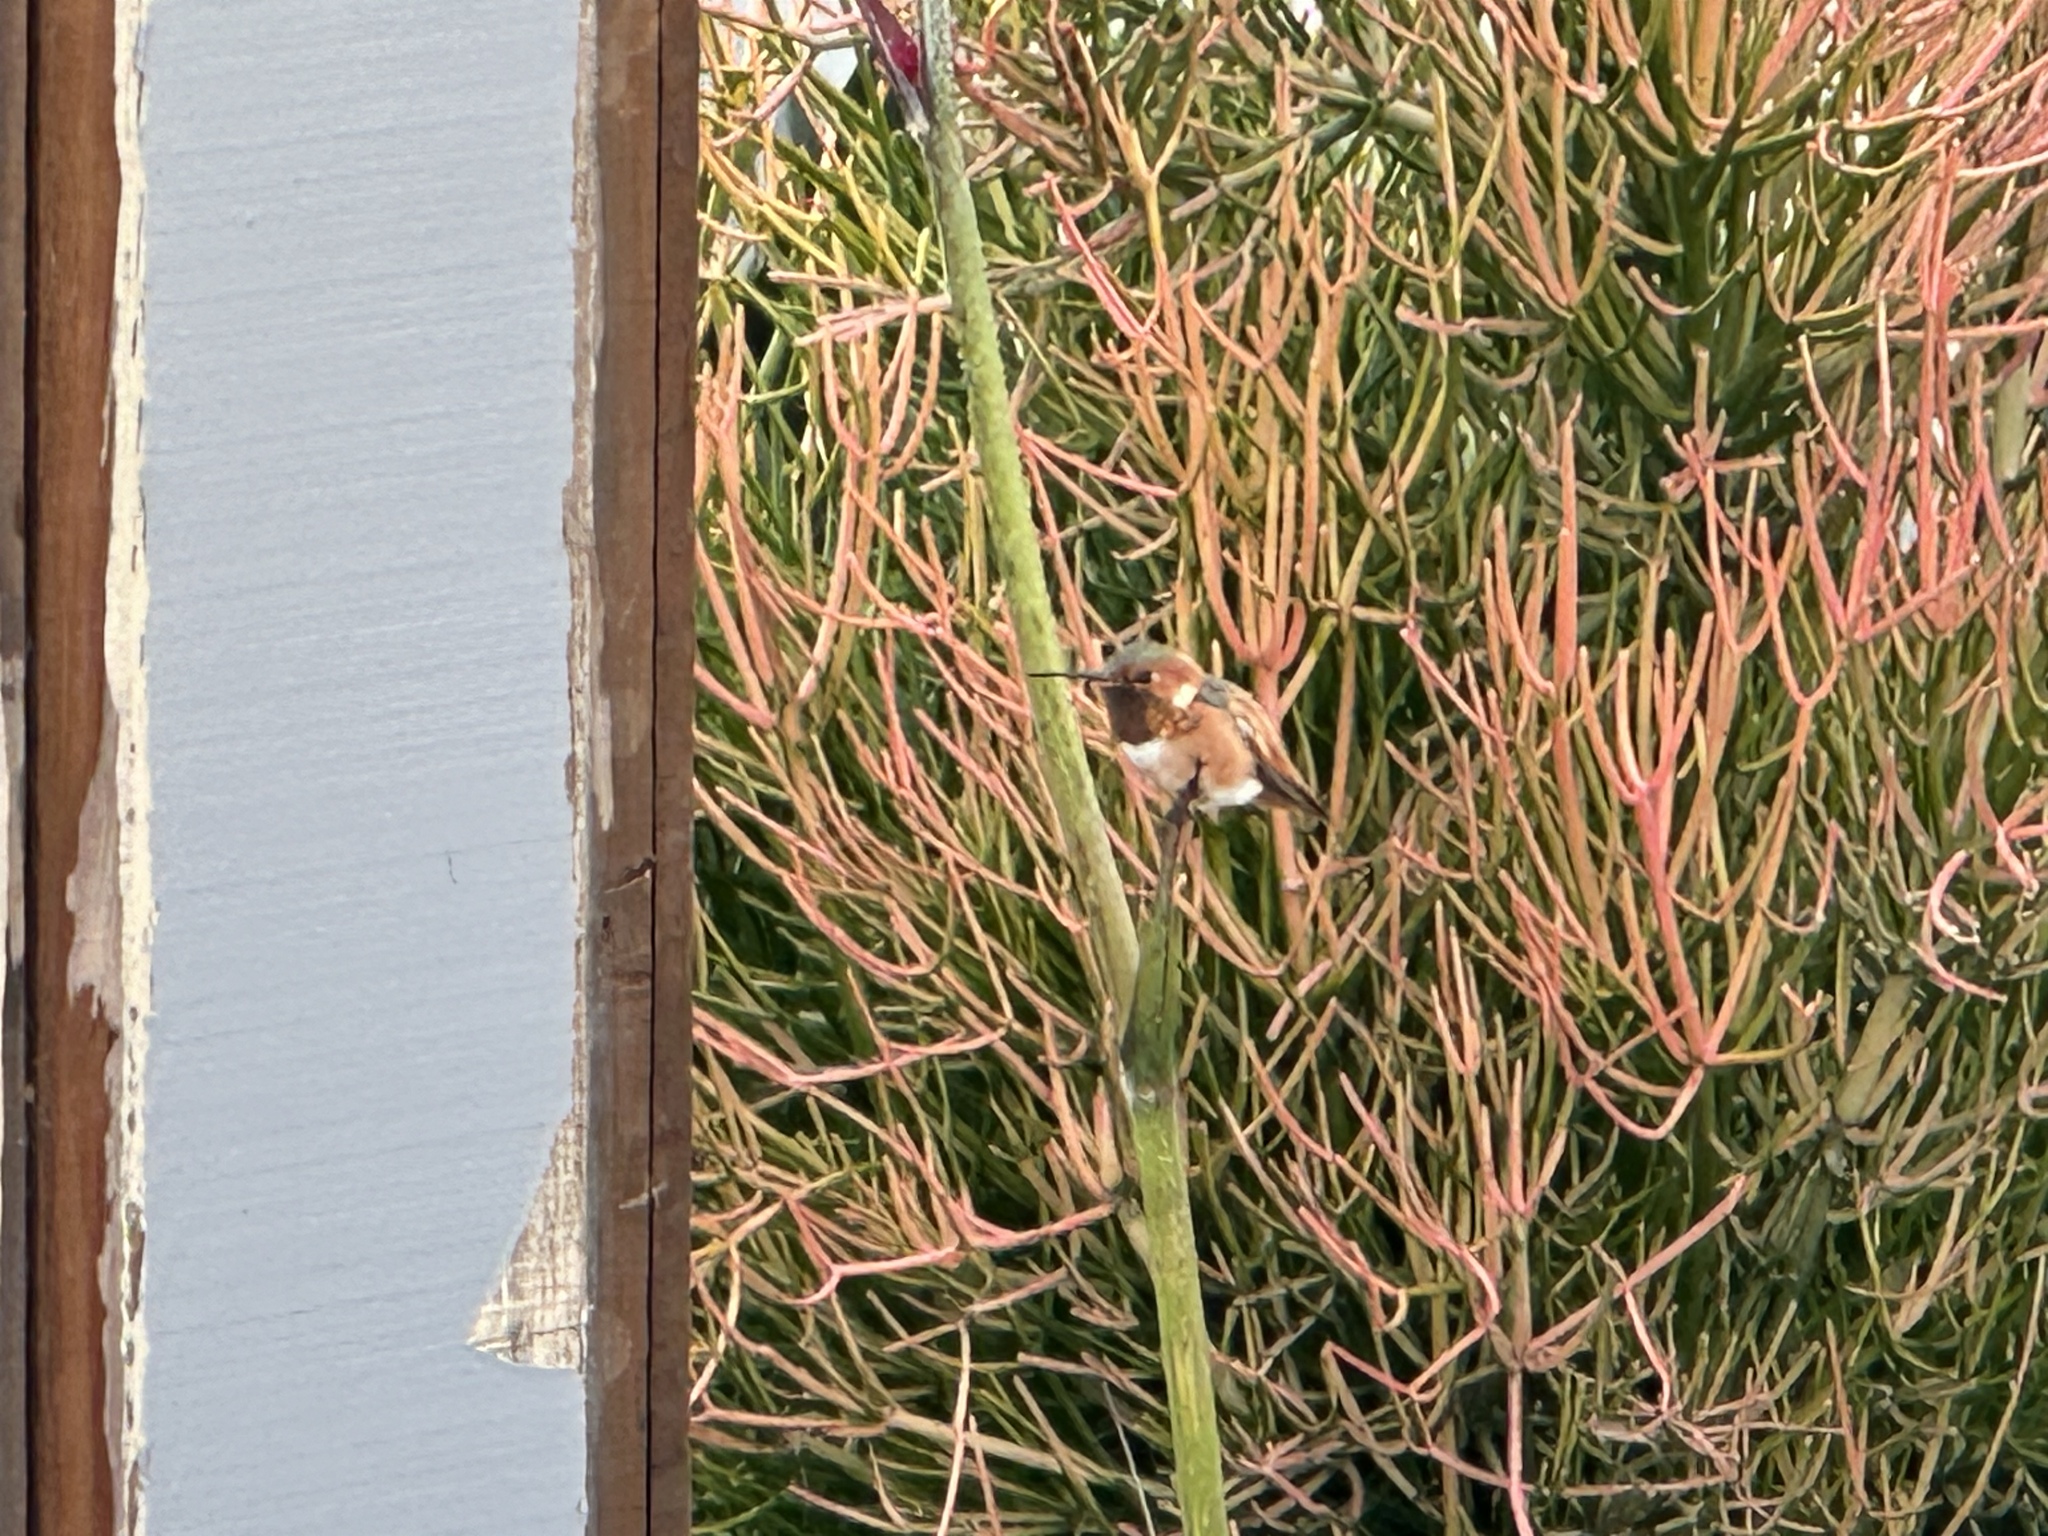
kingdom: Animalia
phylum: Chordata
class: Aves
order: Apodiformes
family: Trochilidae
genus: Selasphorus
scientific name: Selasphorus
